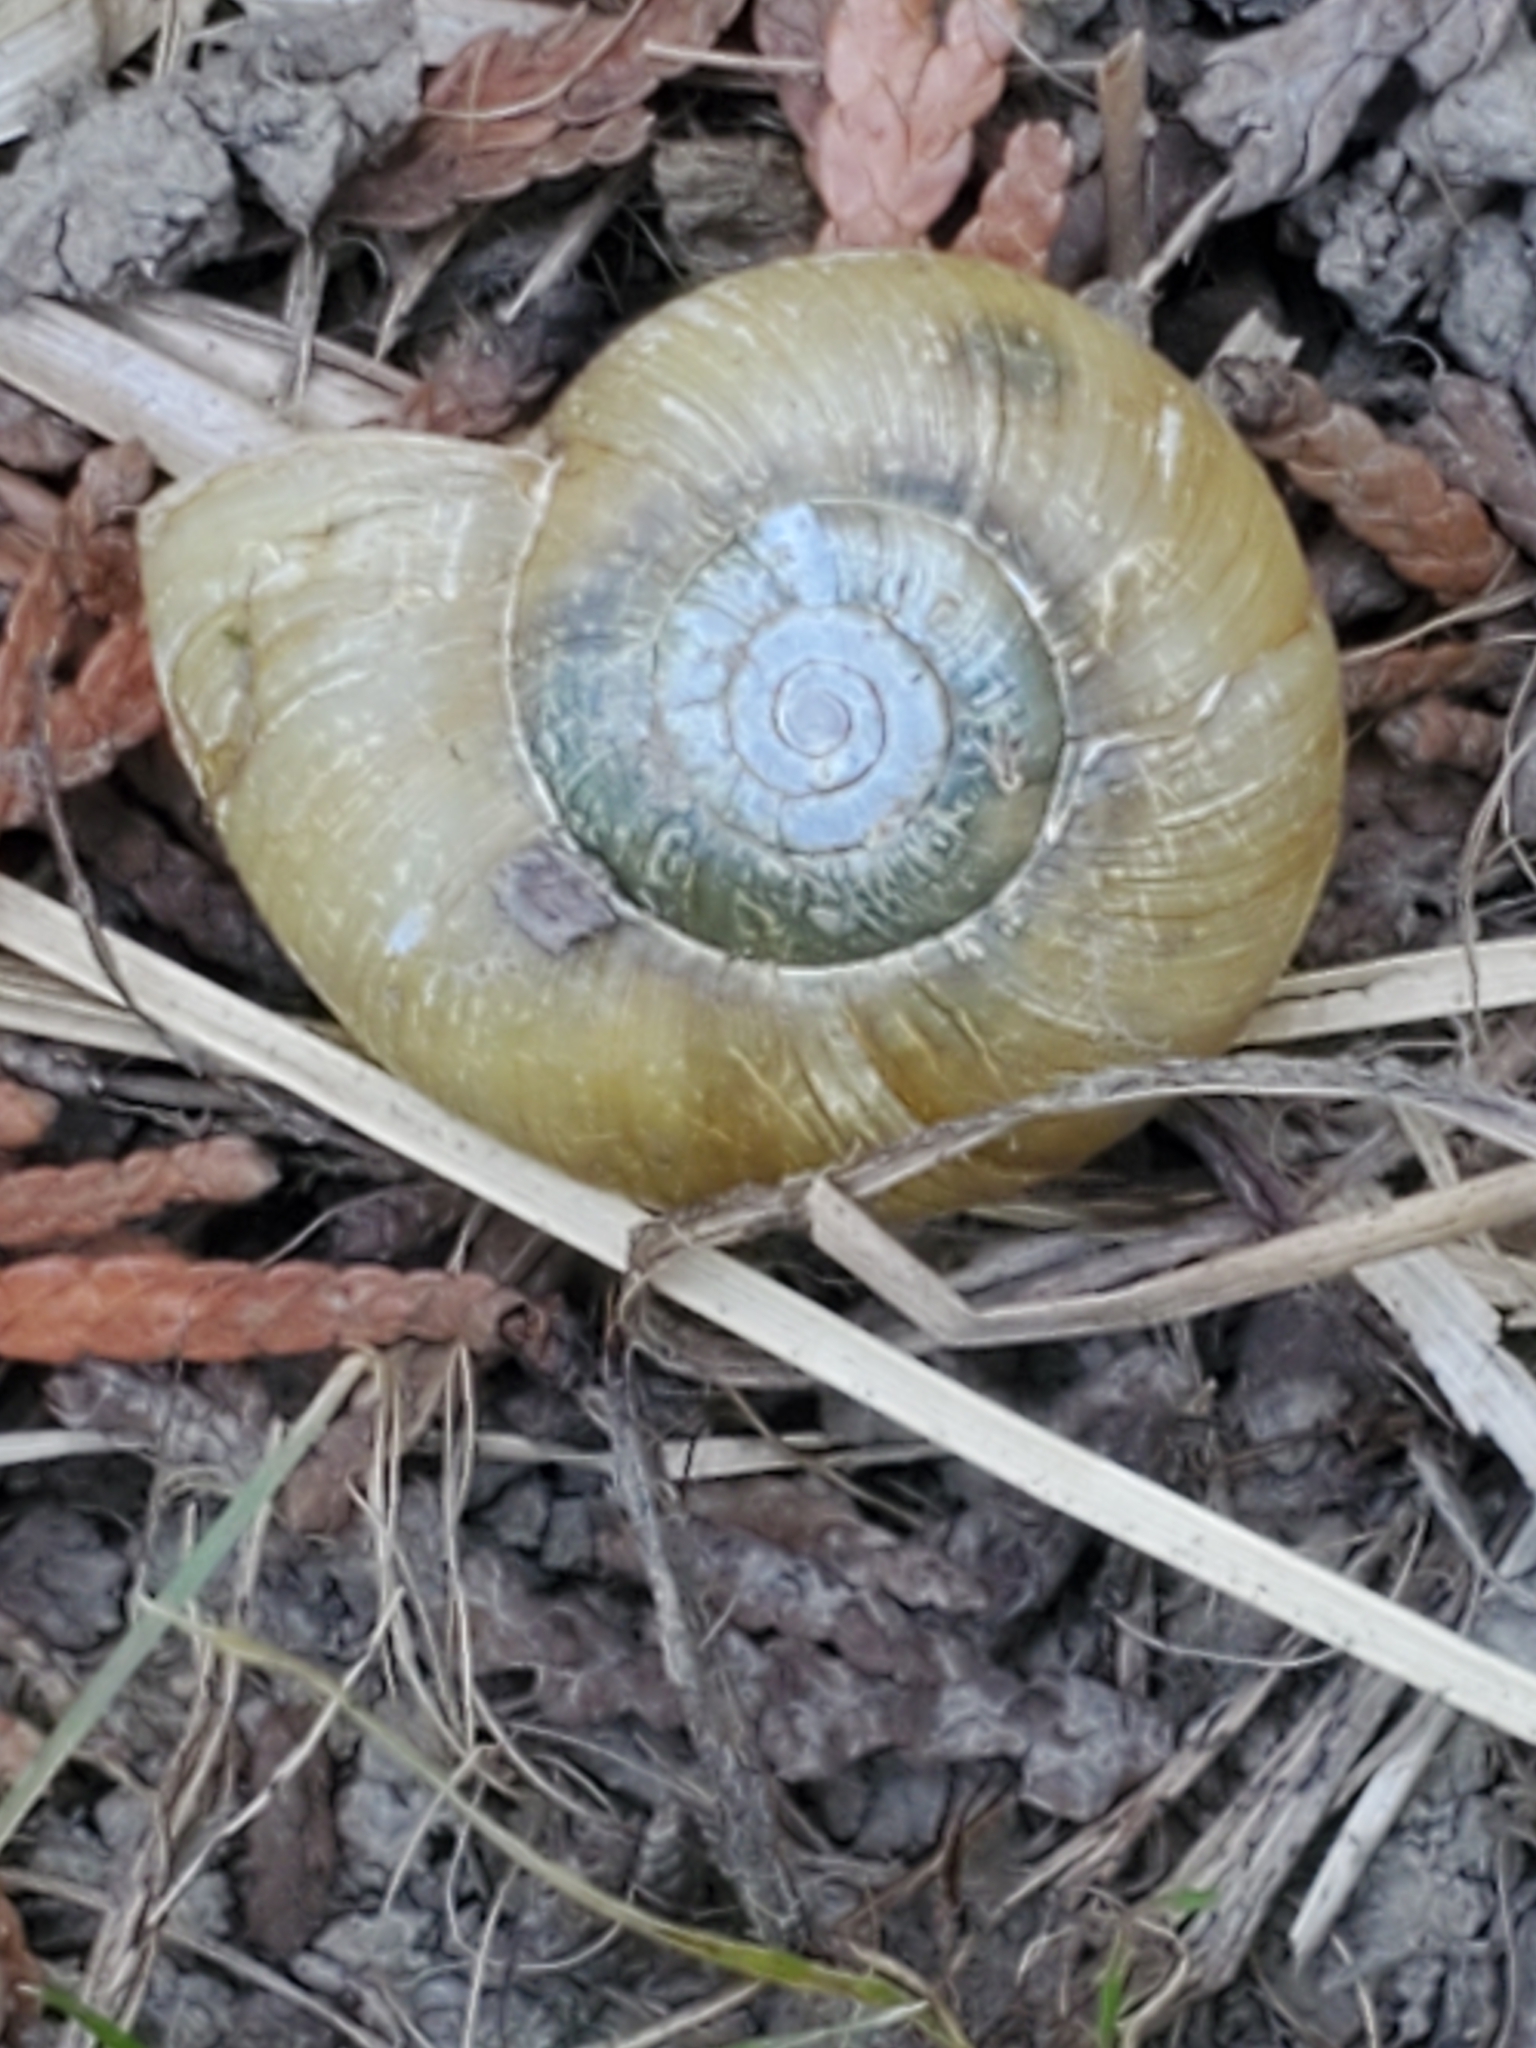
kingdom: Animalia
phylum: Mollusca
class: Gastropoda
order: Stylommatophora
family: Haplotrematidae
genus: Haplotrema
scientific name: Haplotrema vancouverense
